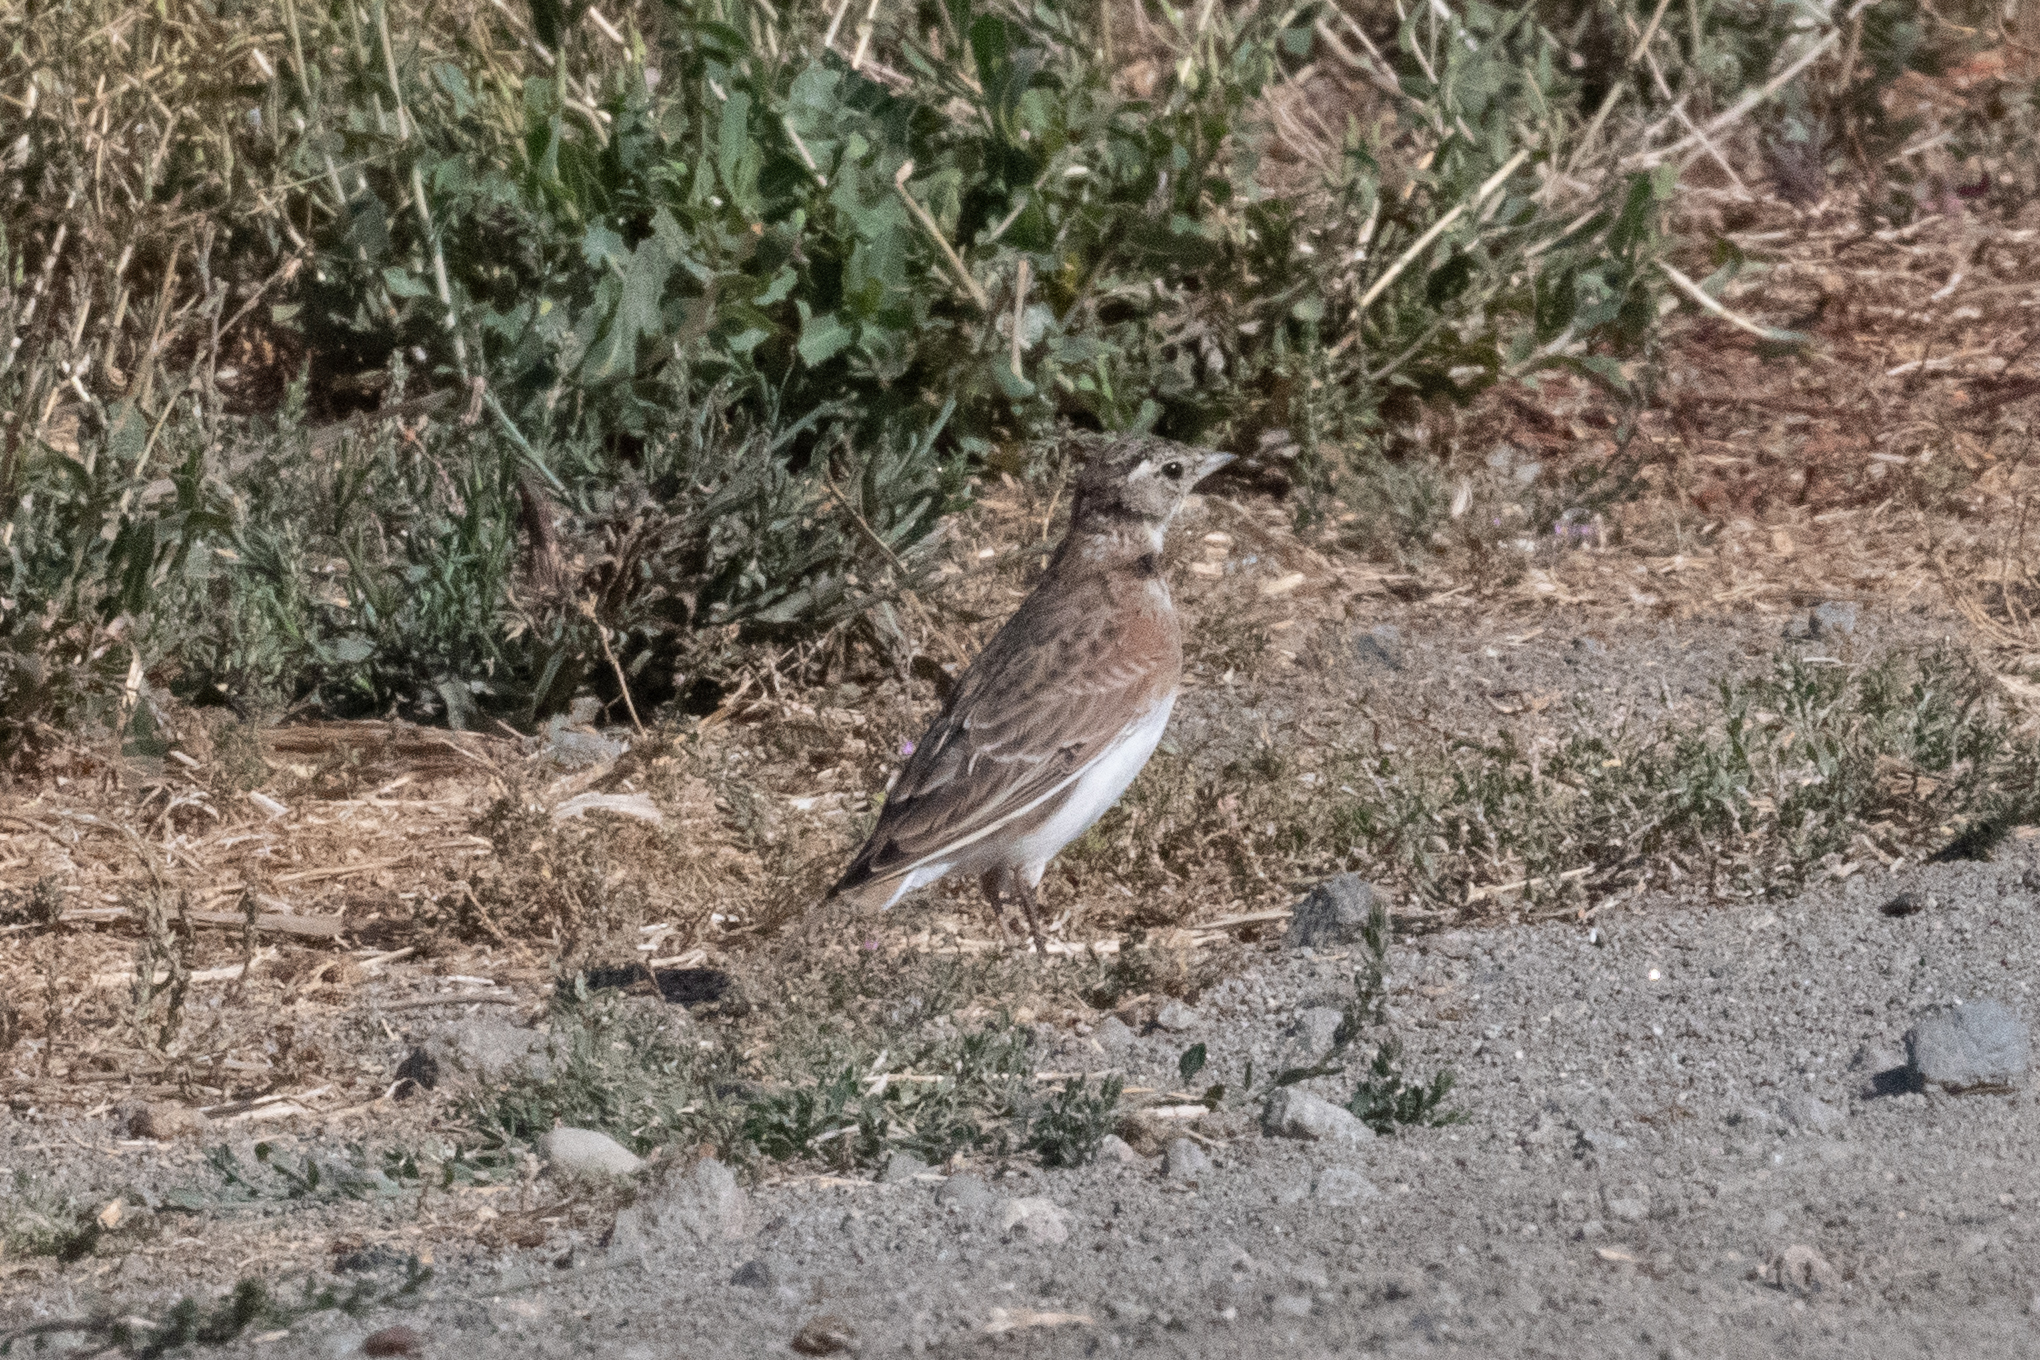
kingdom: Animalia
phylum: Chordata
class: Aves
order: Passeriformes
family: Alaudidae
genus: Eremophila
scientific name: Eremophila alpestris
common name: Horned lark
